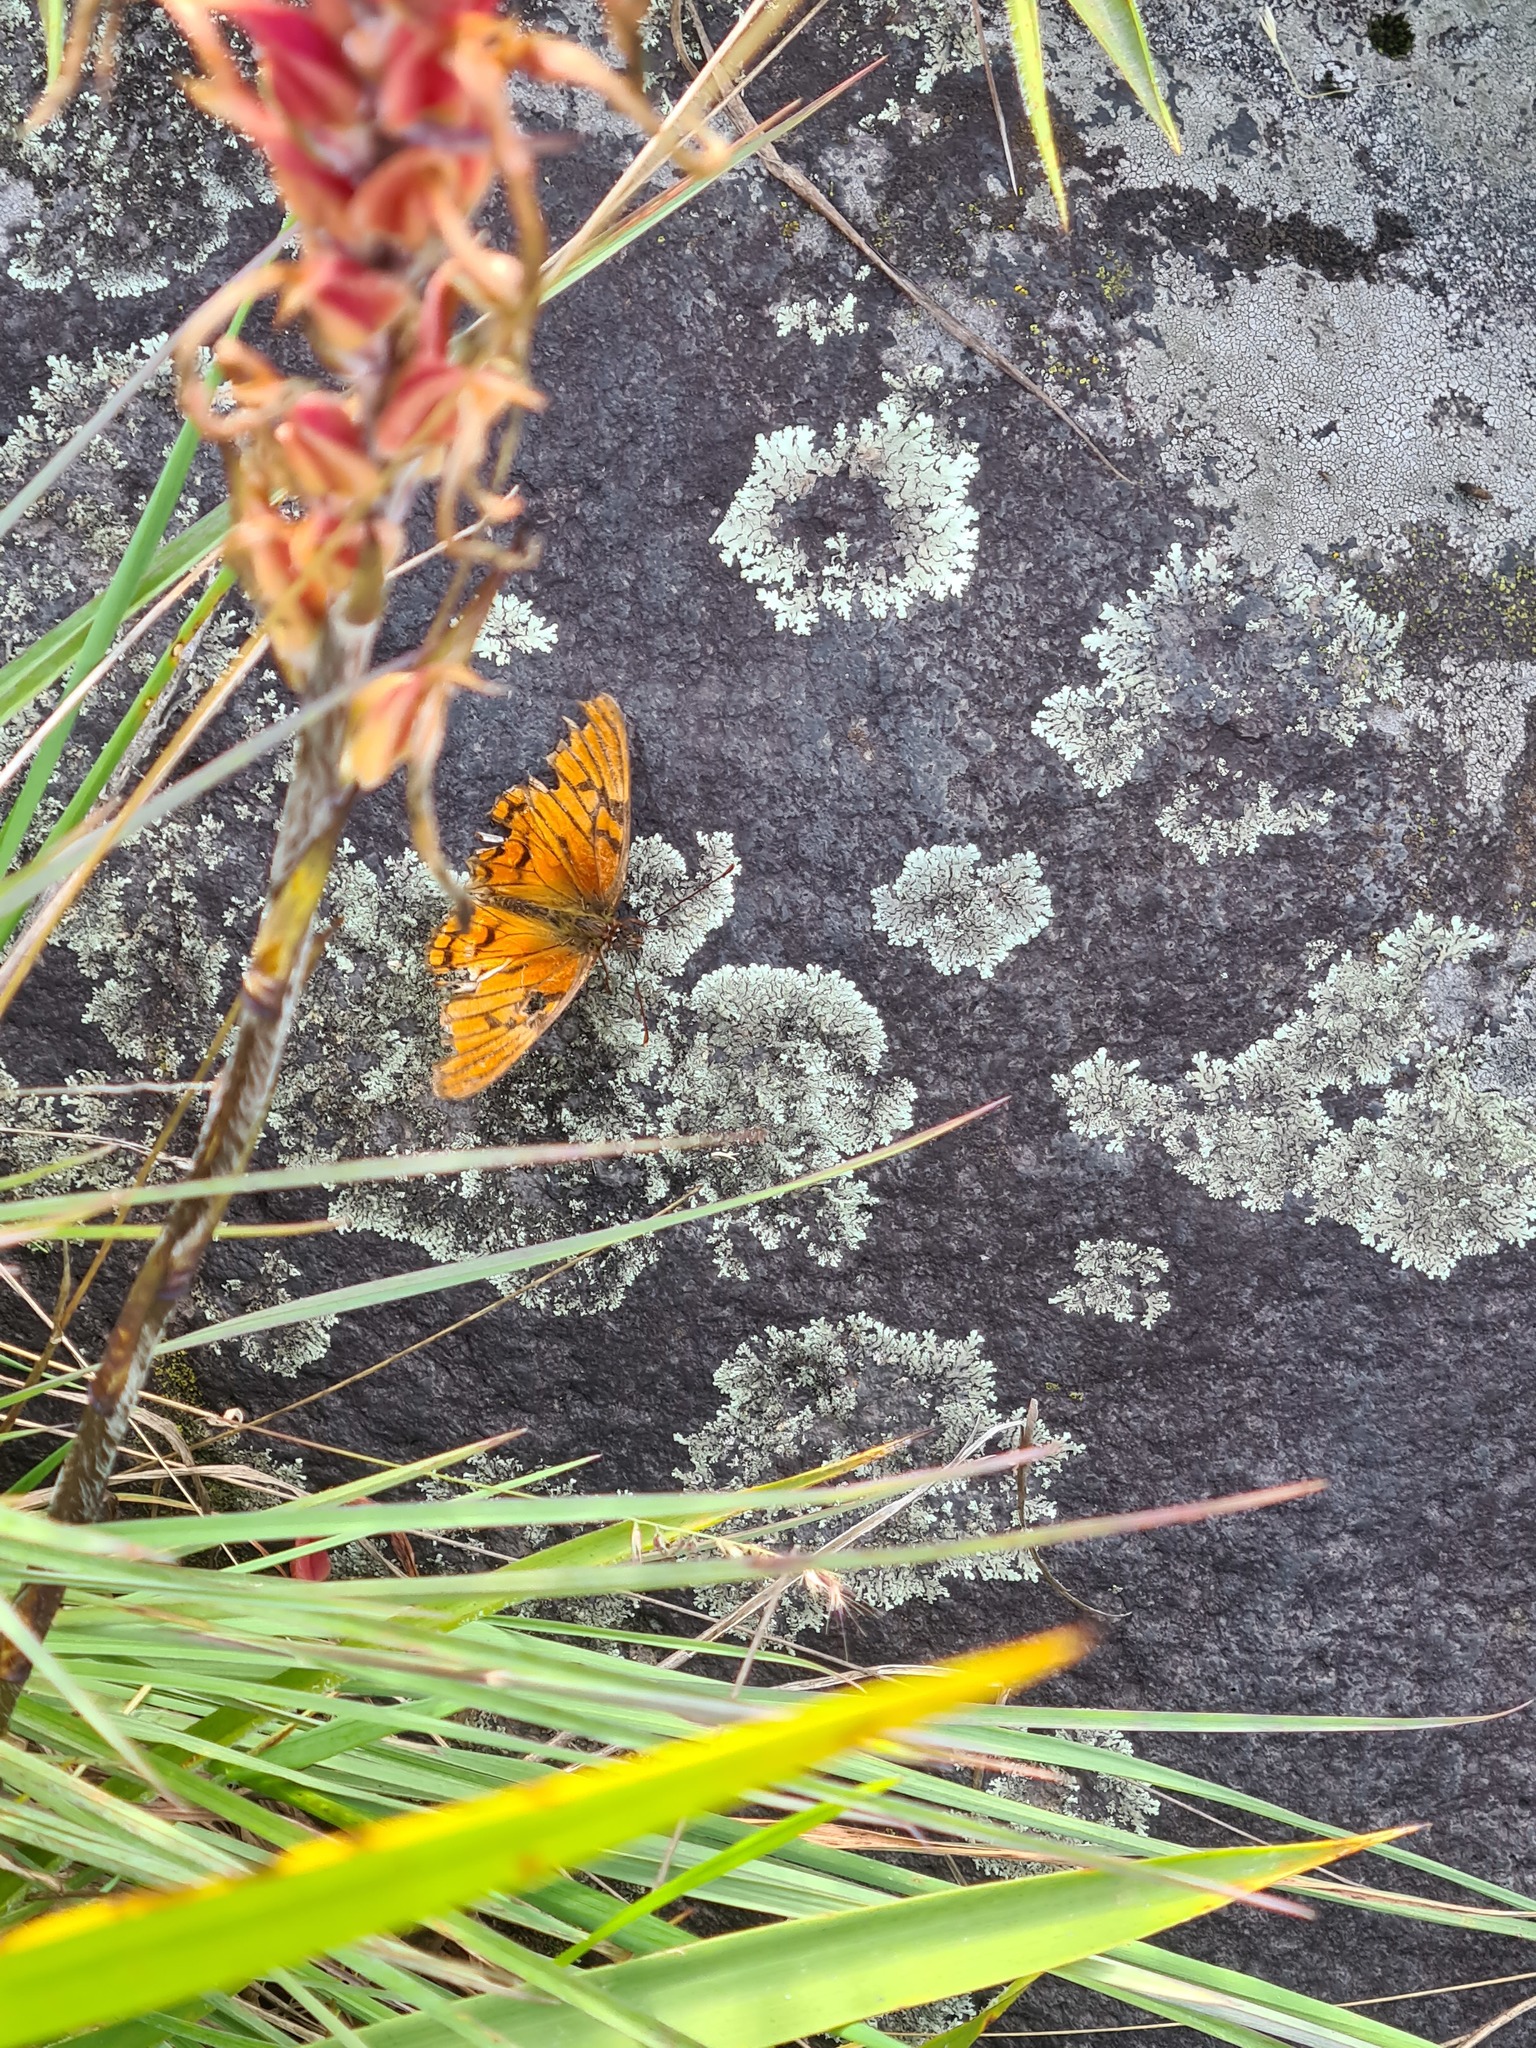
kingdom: Animalia
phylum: Arthropoda
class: Insecta
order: Lepidoptera
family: Nymphalidae
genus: Dione
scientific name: Dione glycera
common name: Andean silverspot
